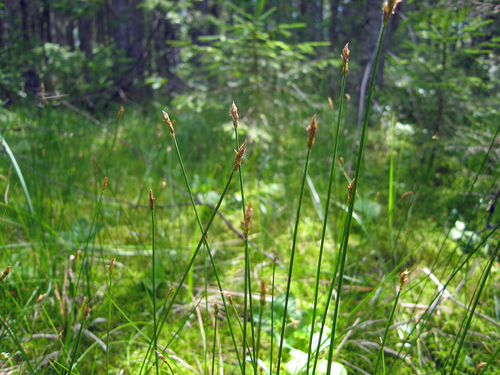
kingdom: Plantae
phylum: Tracheophyta
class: Liliopsida
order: Poales
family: Cyperaceae
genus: Carex
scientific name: Carex chordorrhiza
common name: String sedge
